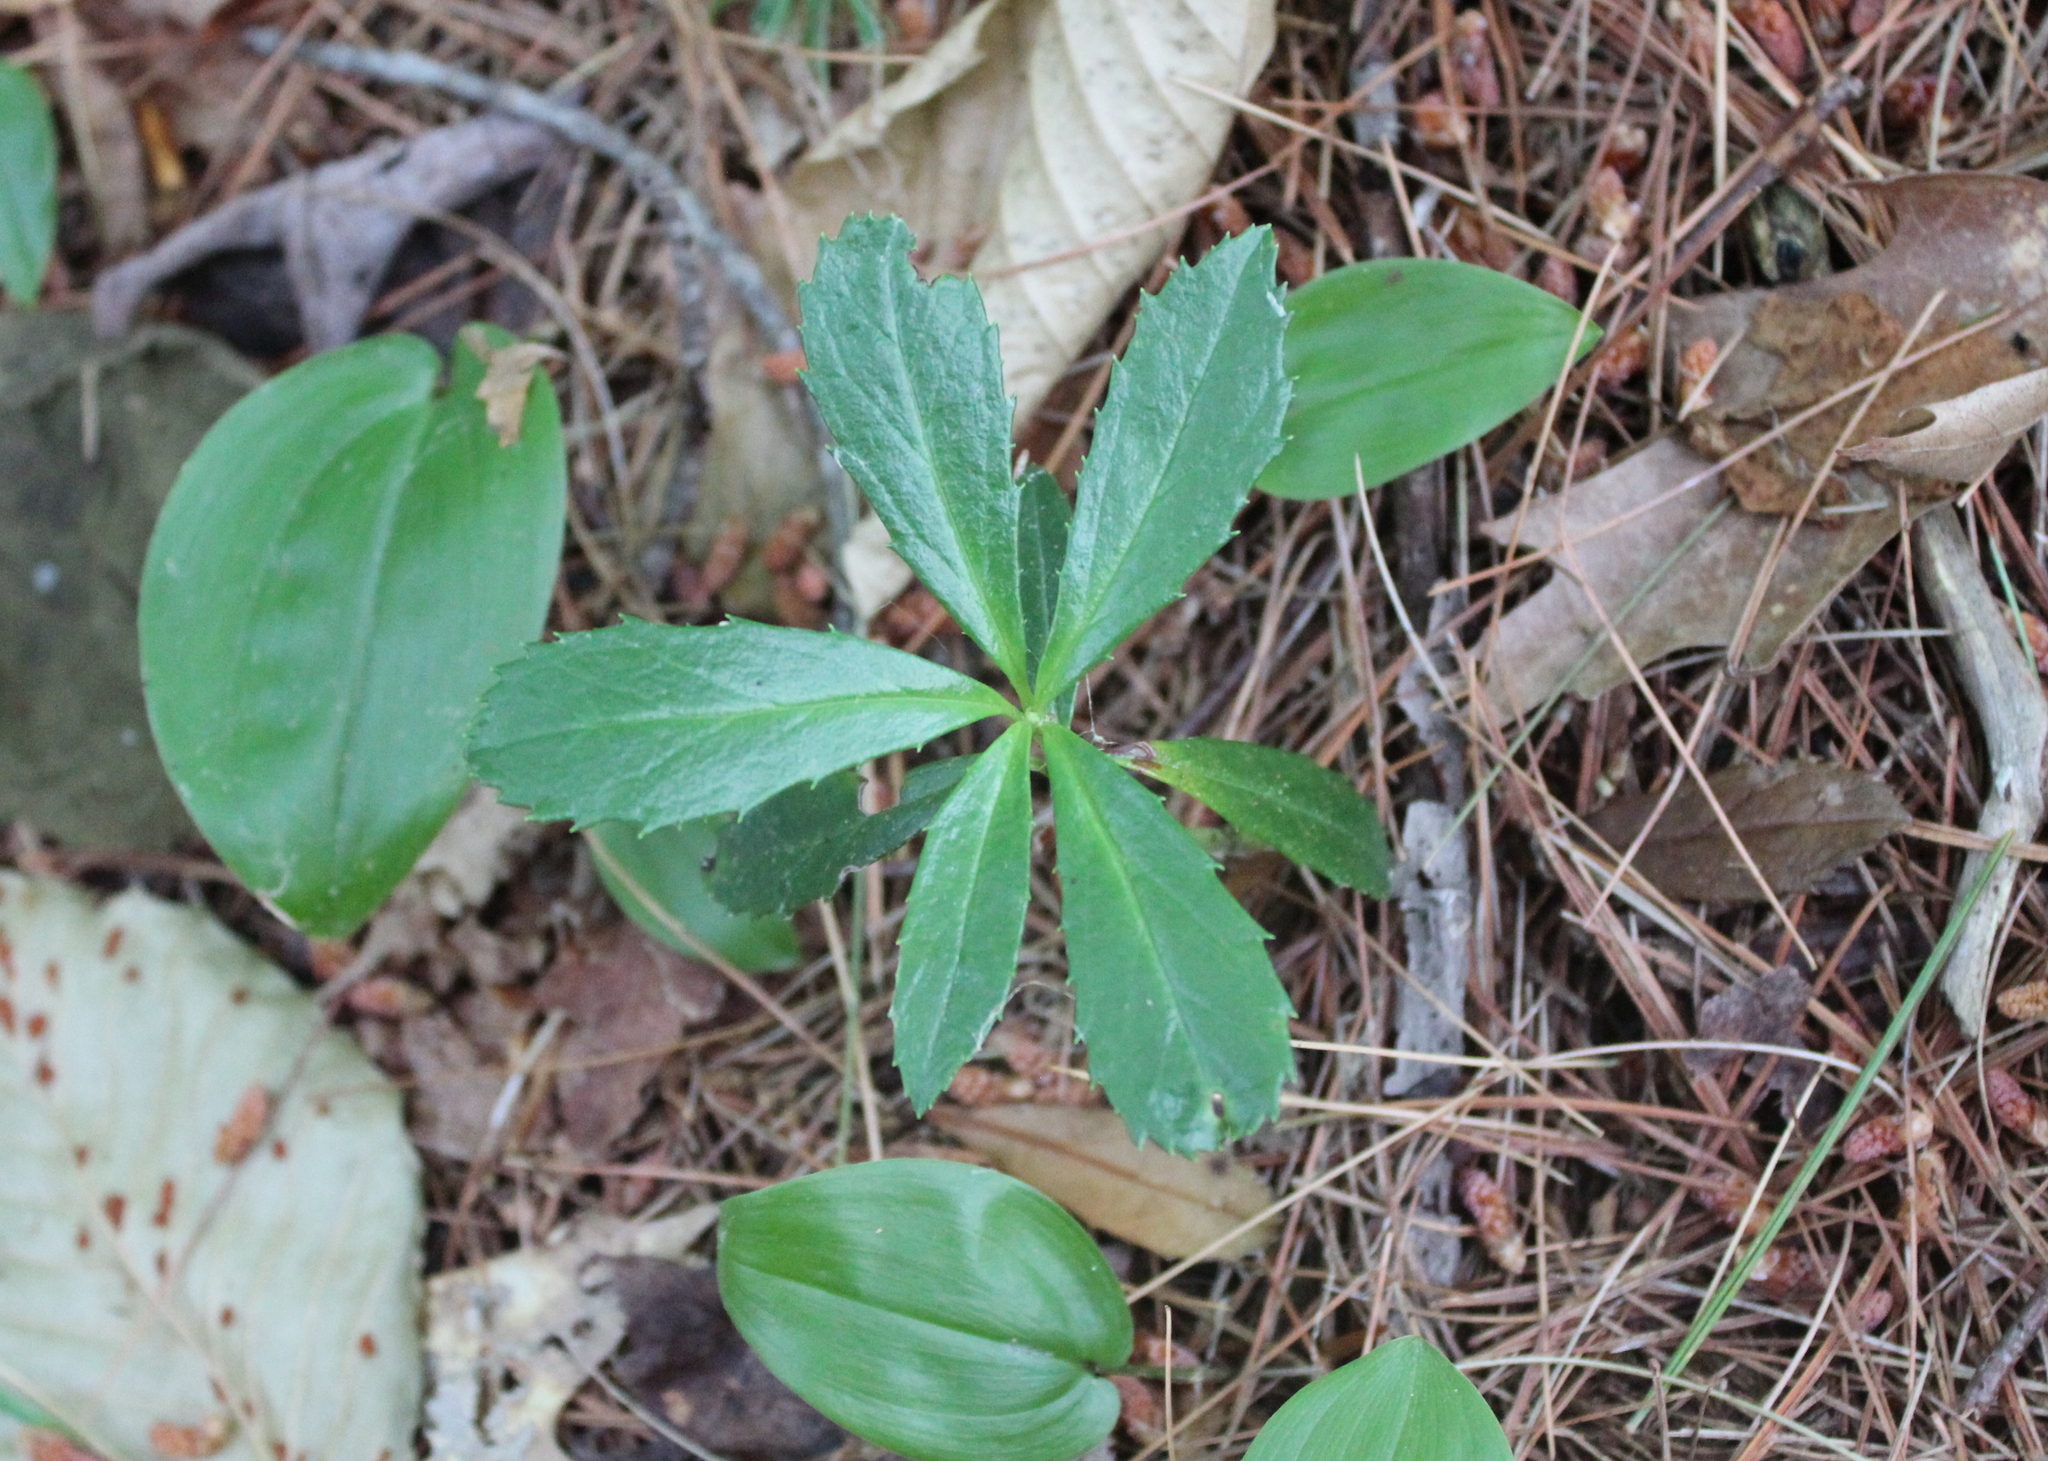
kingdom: Plantae
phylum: Tracheophyta
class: Magnoliopsida
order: Ericales
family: Ericaceae
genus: Chimaphila
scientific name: Chimaphila umbellata
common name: Pipsissewa
